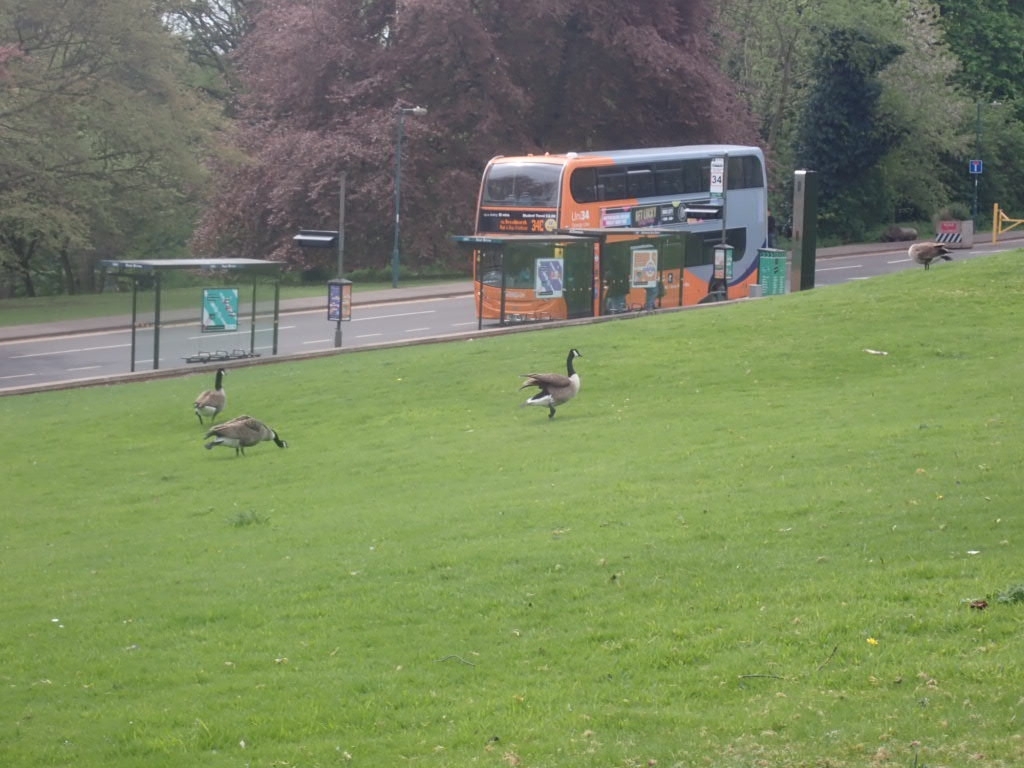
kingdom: Animalia
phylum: Chordata
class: Aves
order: Anseriformes
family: Anatidae
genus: Branta
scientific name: Branta canadensis
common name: Canada goose
